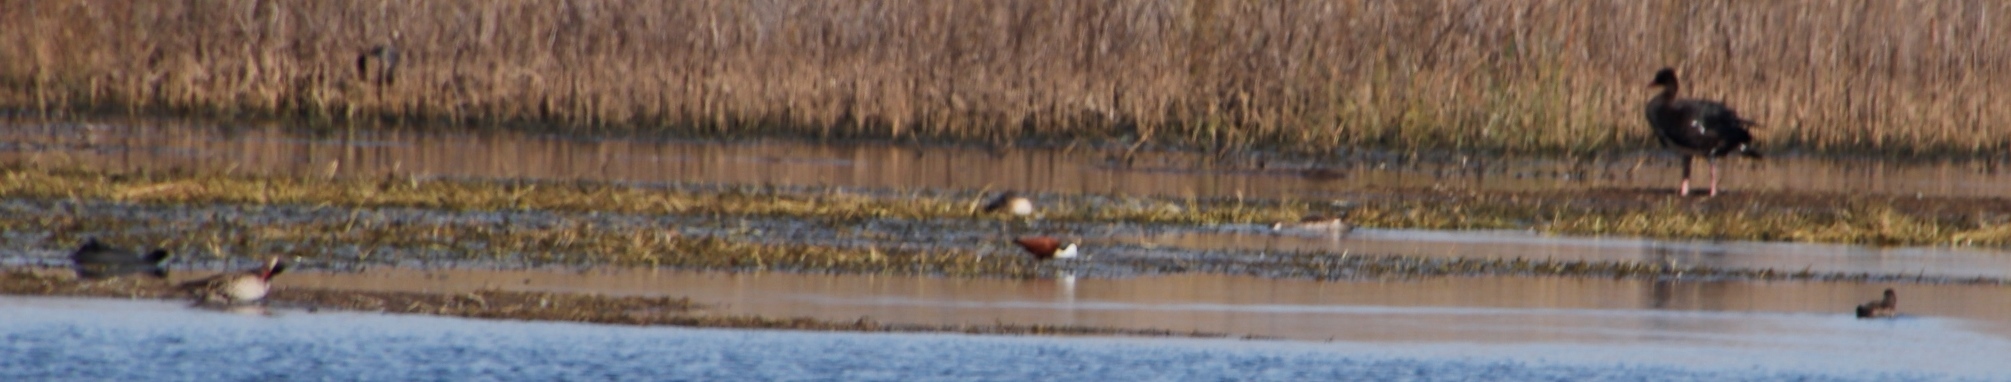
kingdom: Animalia
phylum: Chordata
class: Aves
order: Charadriiformes
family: Jacanidae
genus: Actophilornis
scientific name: Actophilornis africanus
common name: African jacana
